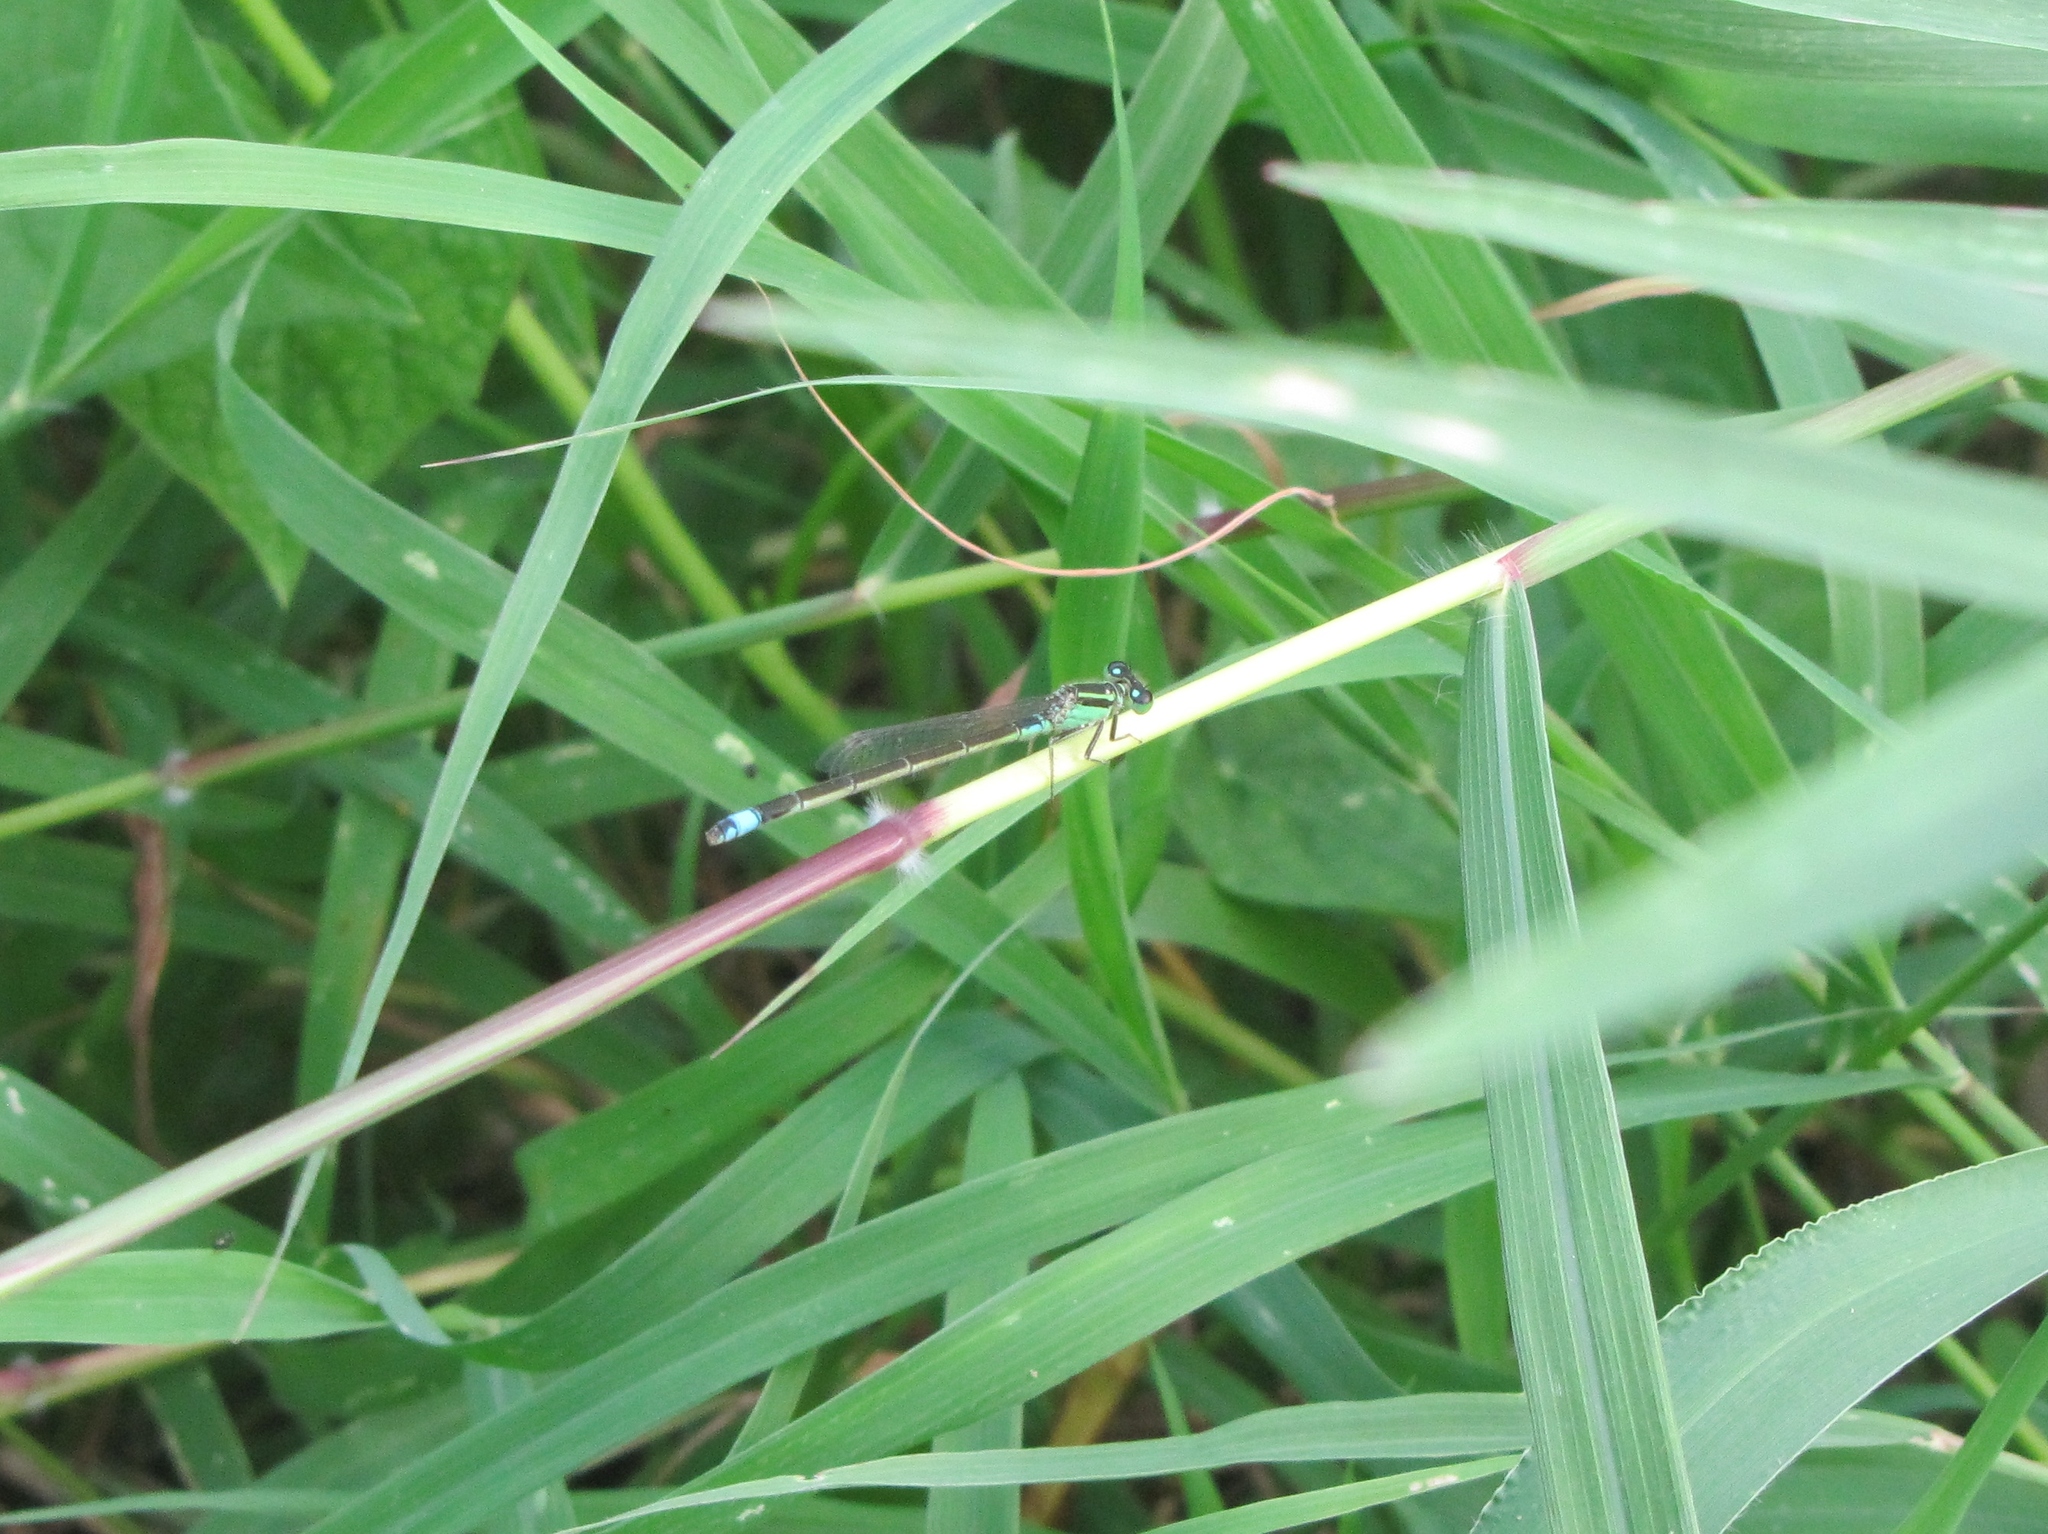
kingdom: Animalia
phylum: Arthropoda
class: Insecta
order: Odonata
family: Coenagrionidae
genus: Ischnura
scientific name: Ischnura senegalensis
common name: Tropical bluetail
